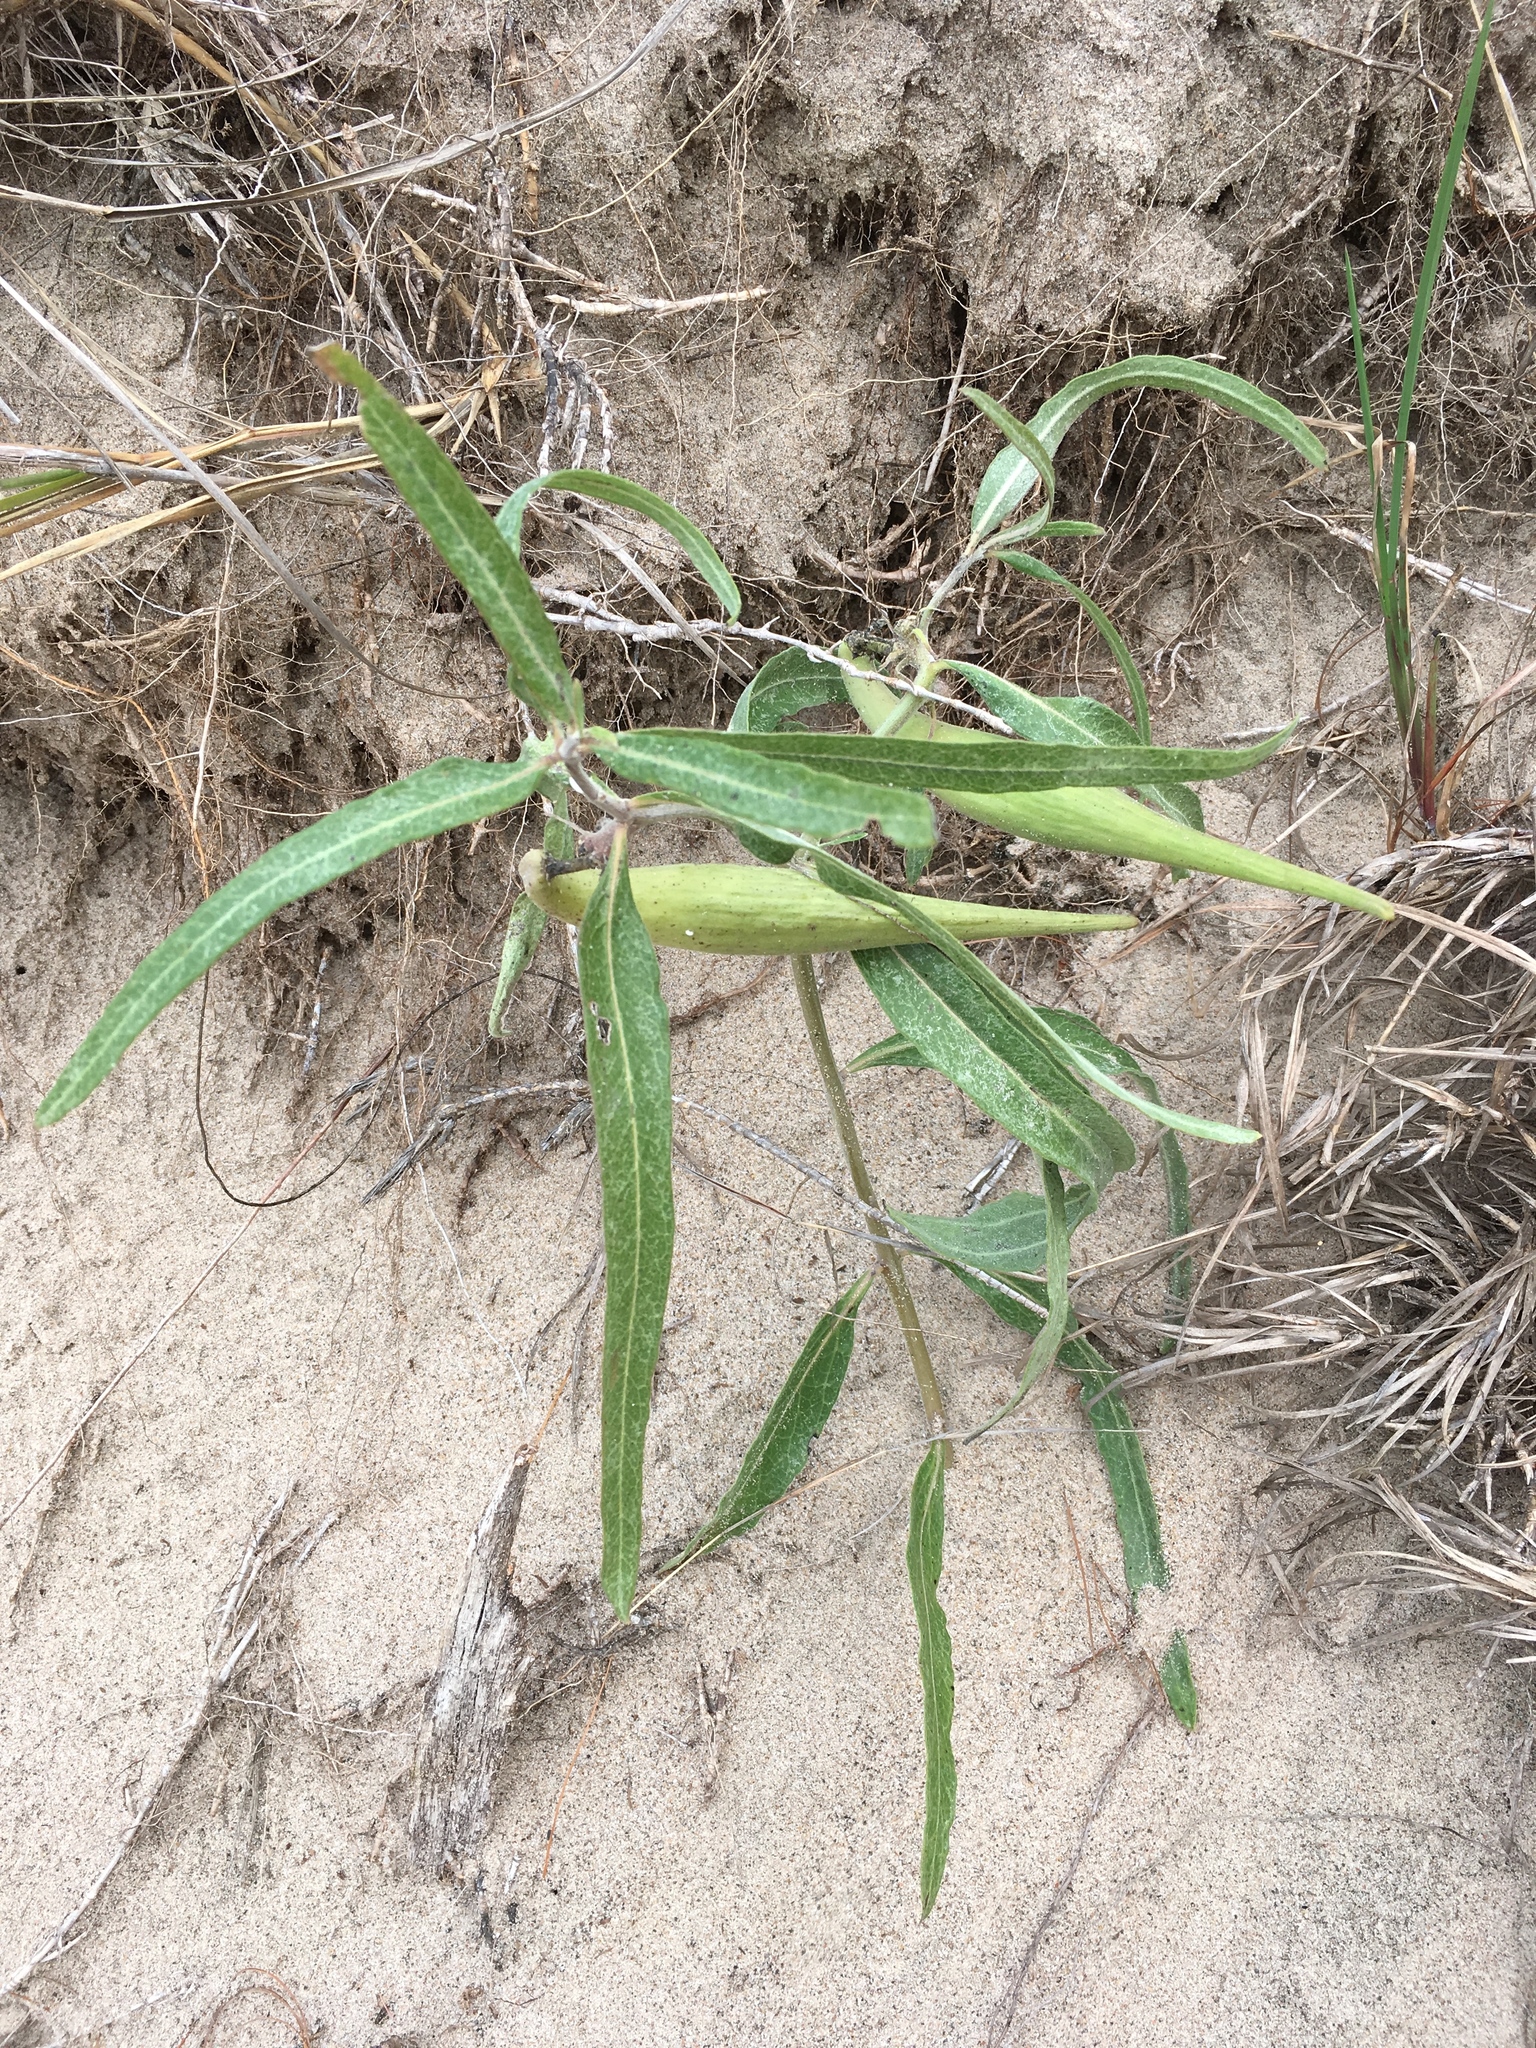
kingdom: Plantae
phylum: Tracheophyta
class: Magnoliopsida
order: Gentianales
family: Apocynaceae
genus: Asclepias
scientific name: Asclepias viridiflora
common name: Green comet milkweed
